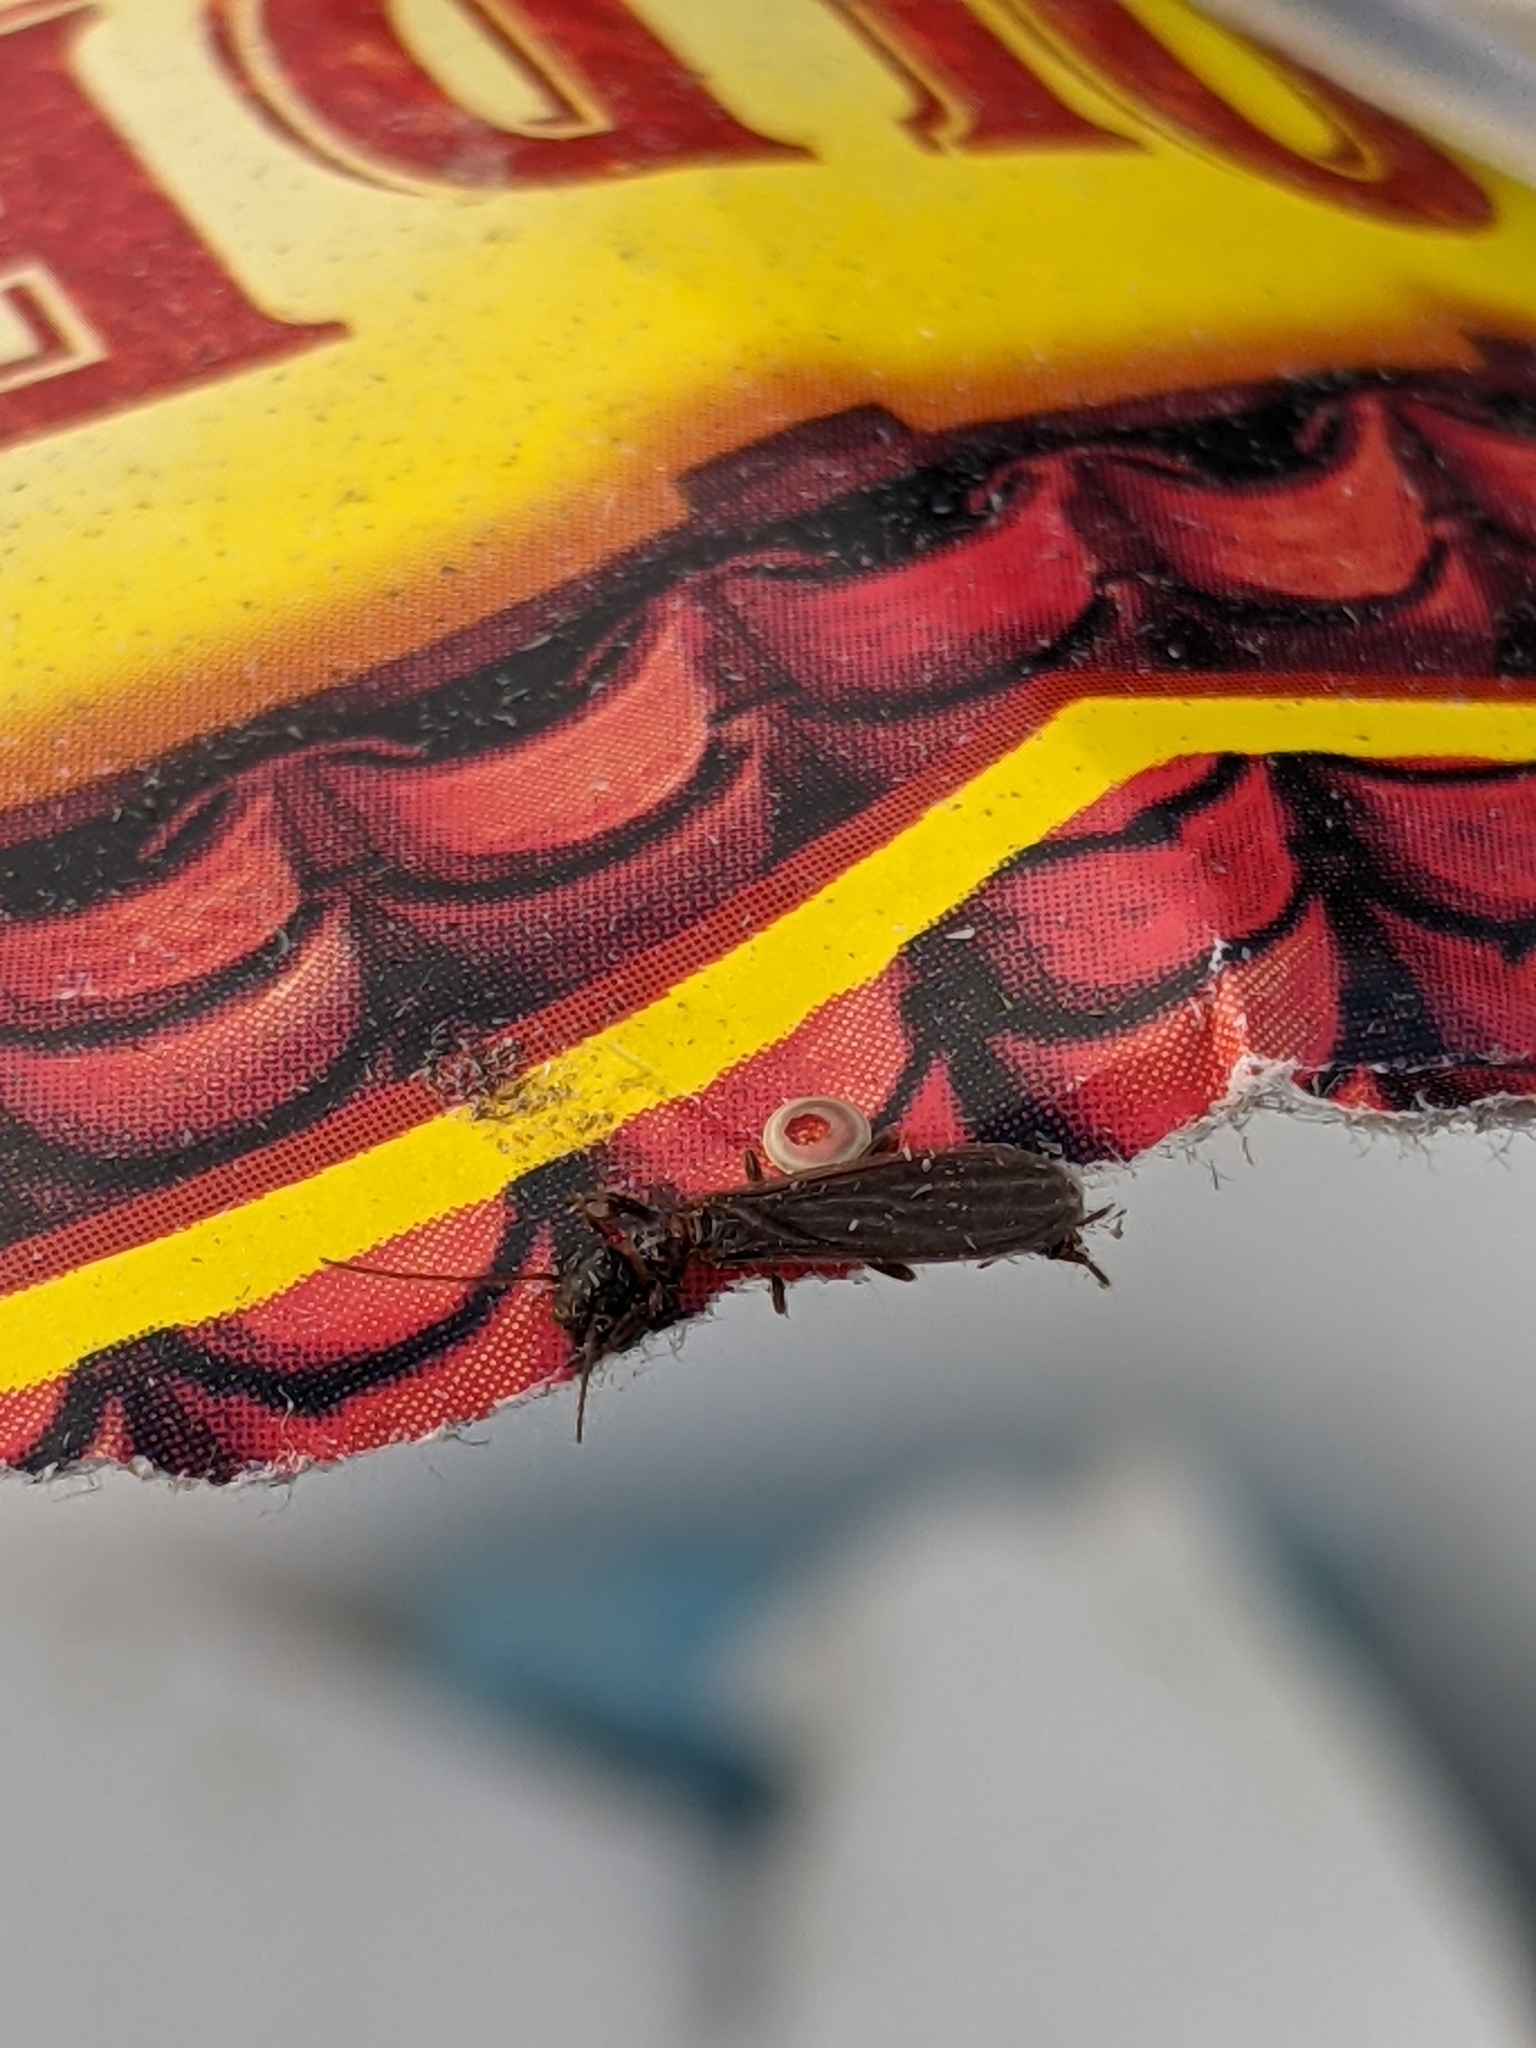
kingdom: Animalia
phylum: Arthropoda
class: Insecta
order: Embioptera
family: Oligotomidae
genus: Oligotoma
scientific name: Oligotoma nigra
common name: Black webspinner
